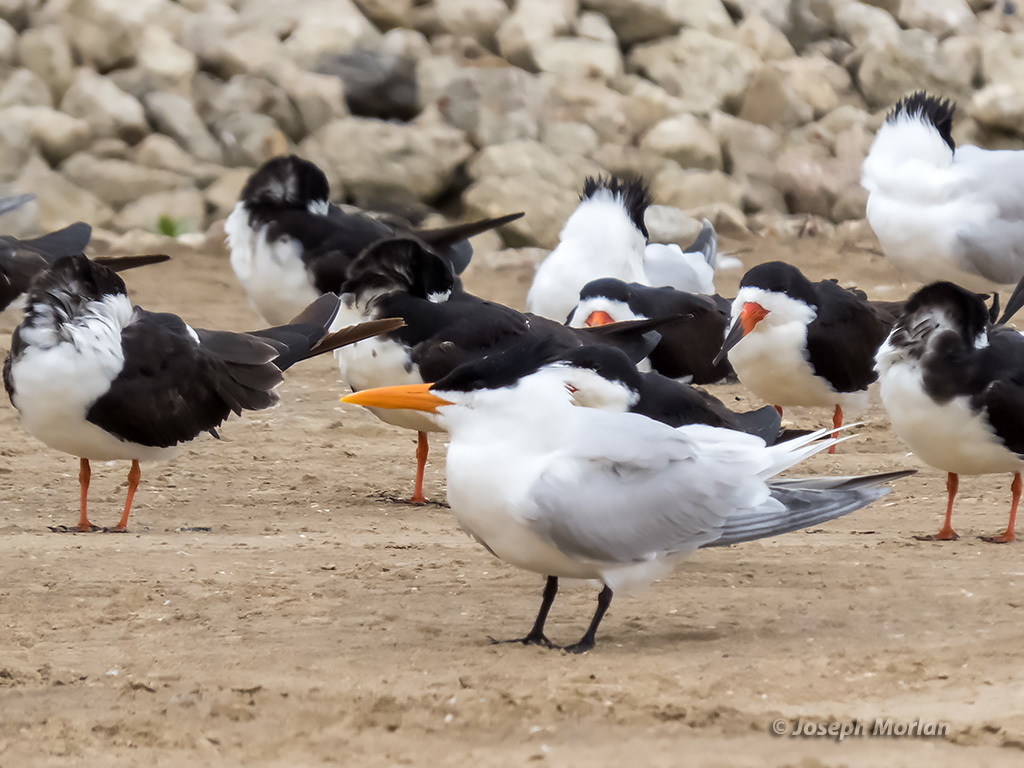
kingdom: Animalia
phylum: Chordata
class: Aves
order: Charadriiformes
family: Laridae
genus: Thalasseus
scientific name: Thalasseus maximus
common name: Royal tern
